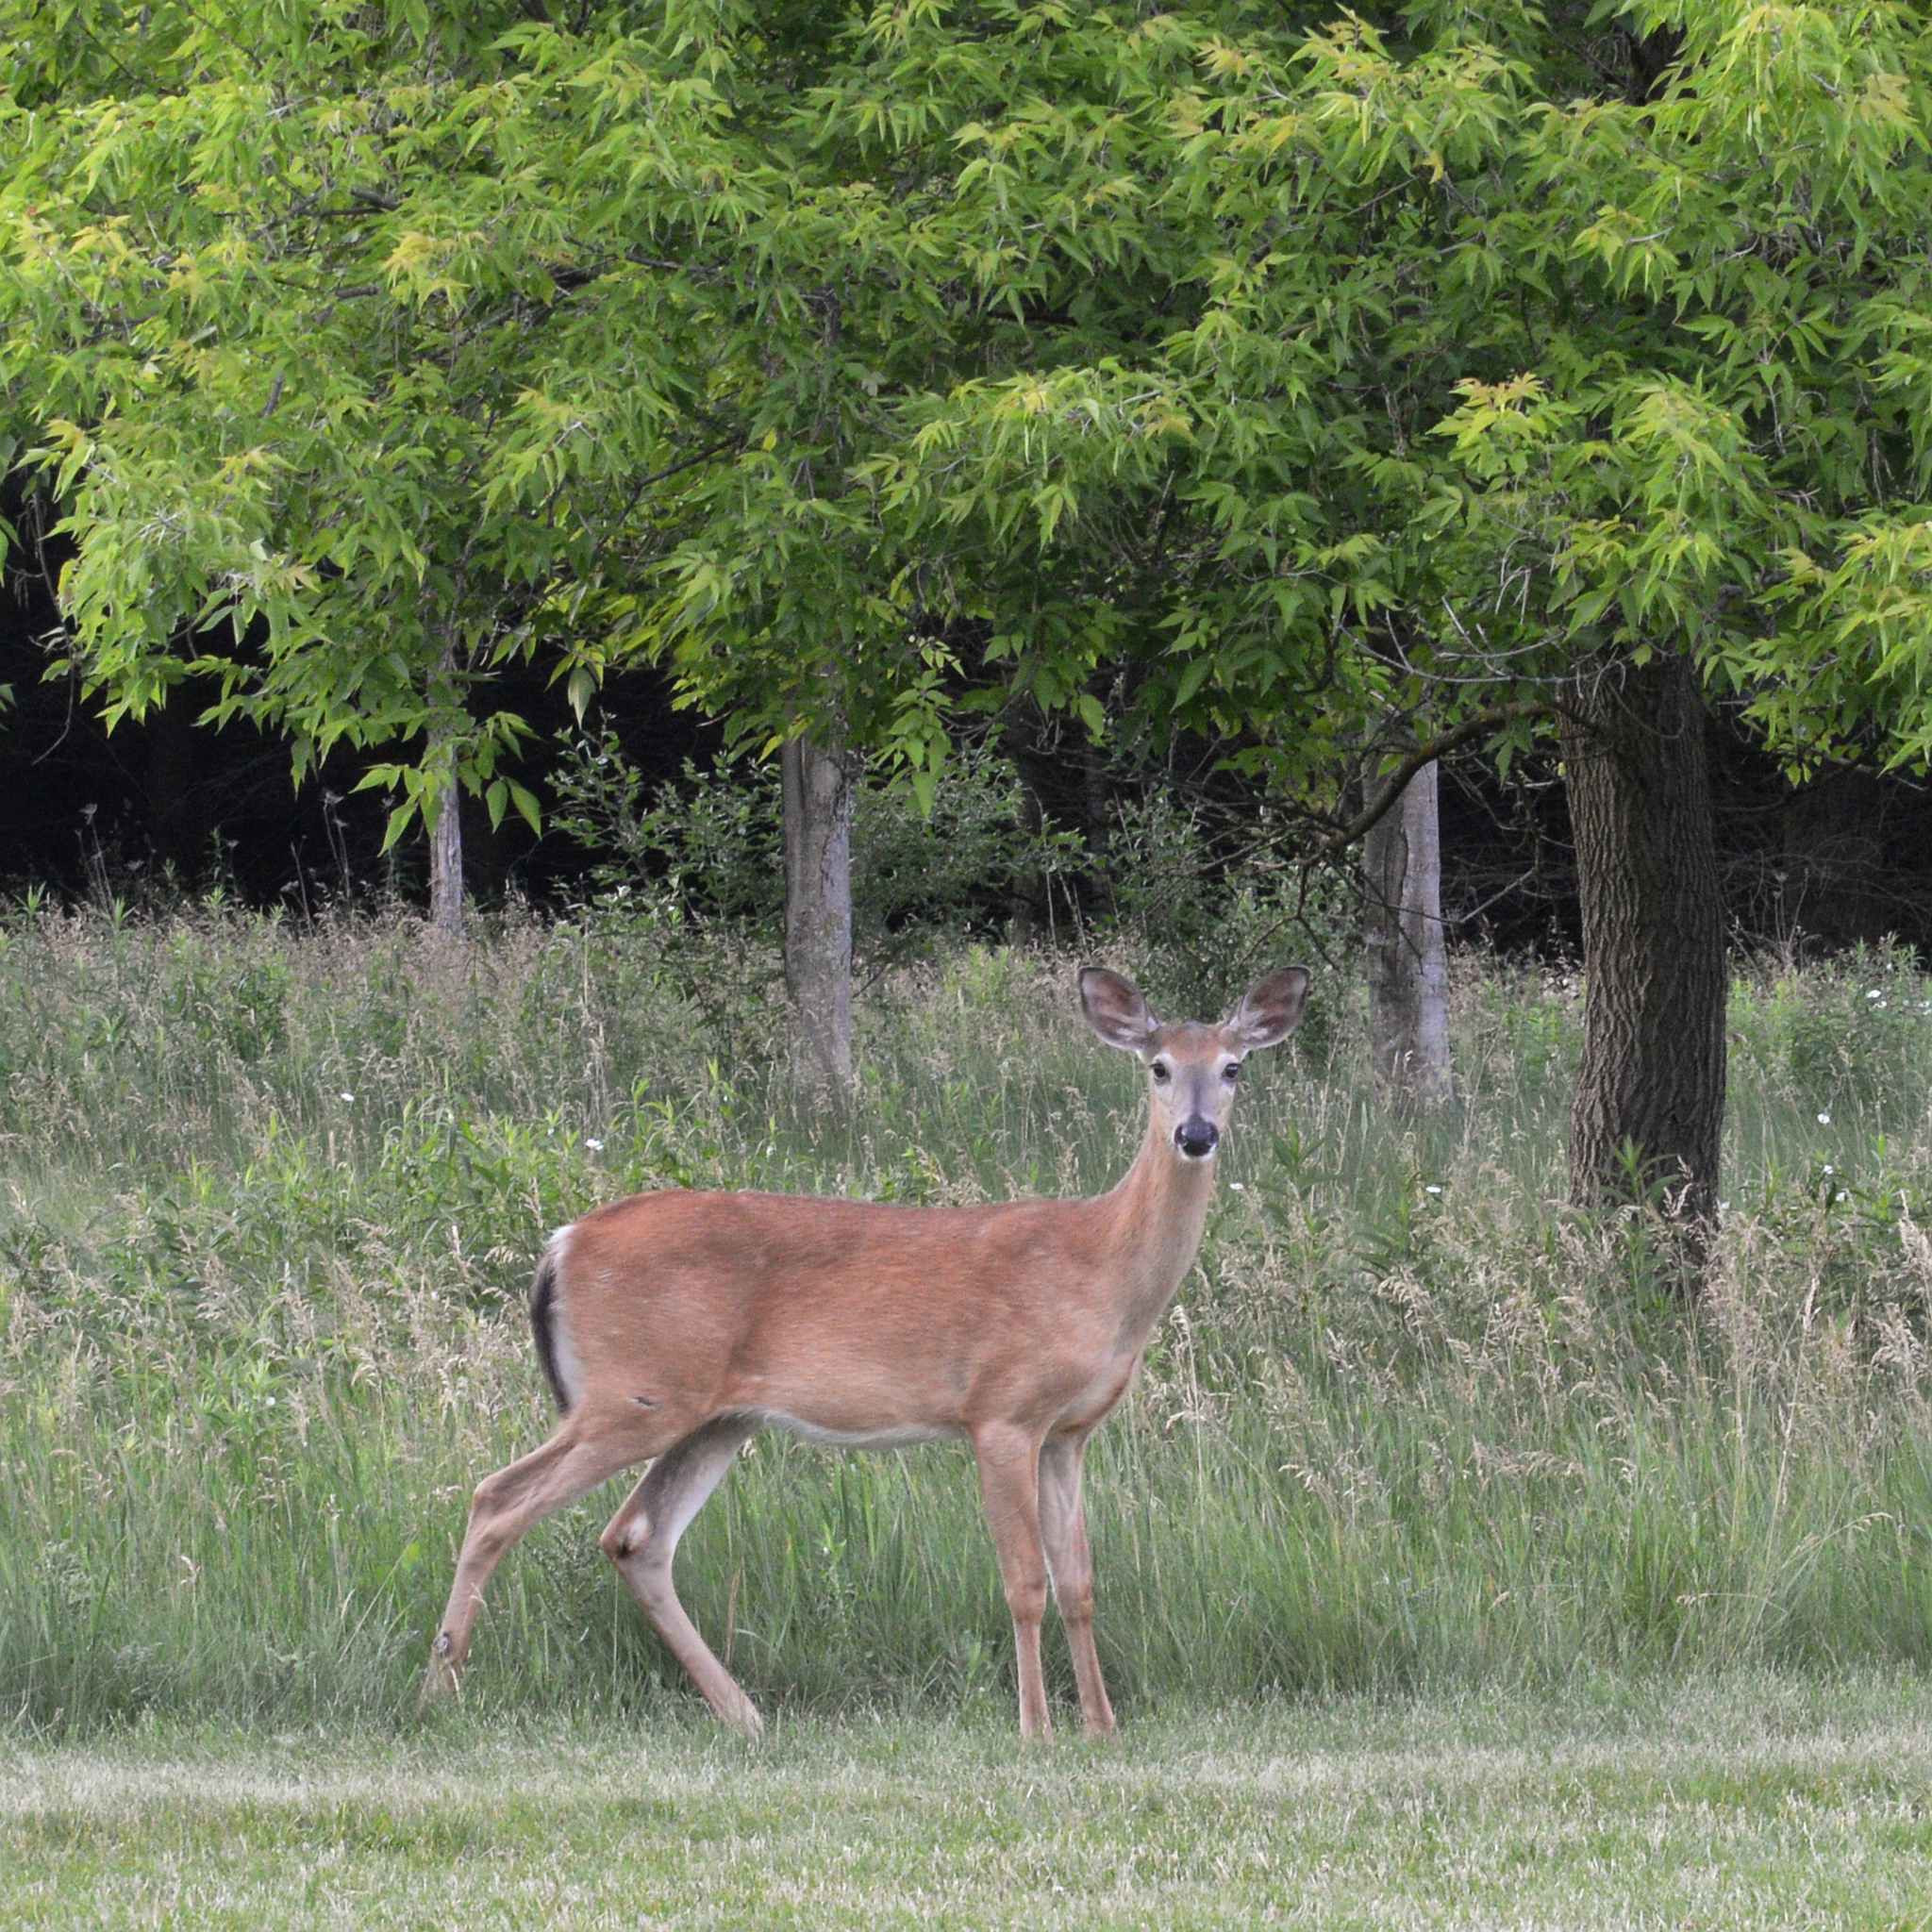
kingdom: Animalia
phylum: Chordata
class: Mammalia
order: Artiodactyla
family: Cervidae
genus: Odocoileus
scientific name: Odocoileus virginianus
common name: White-tailed deer
